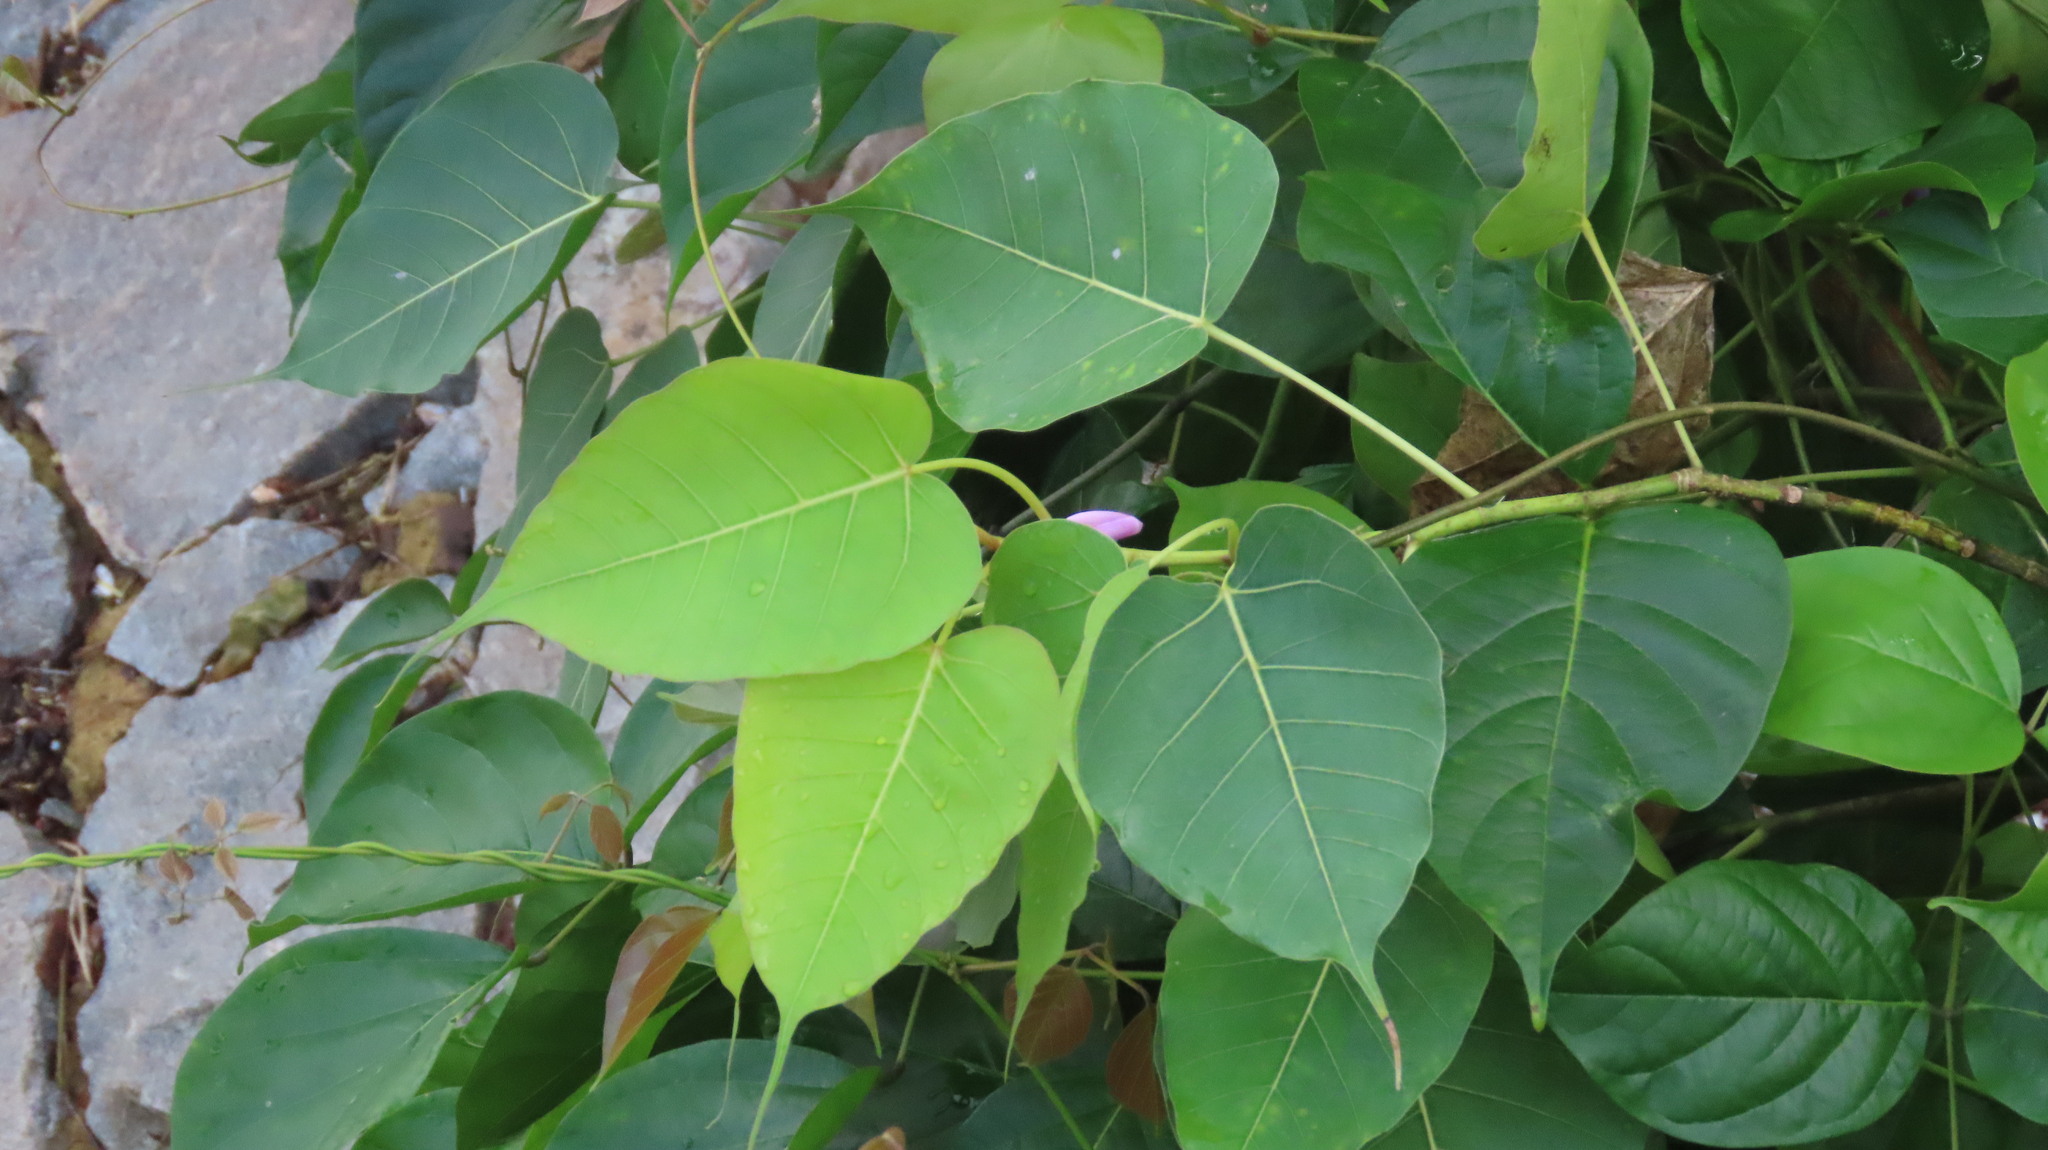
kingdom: Plantae
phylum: Tracheophyta
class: Magnoliopsida
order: Rosales
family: Moraceae
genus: Ficus
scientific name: Ficus religiosa
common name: Bodhi tree
